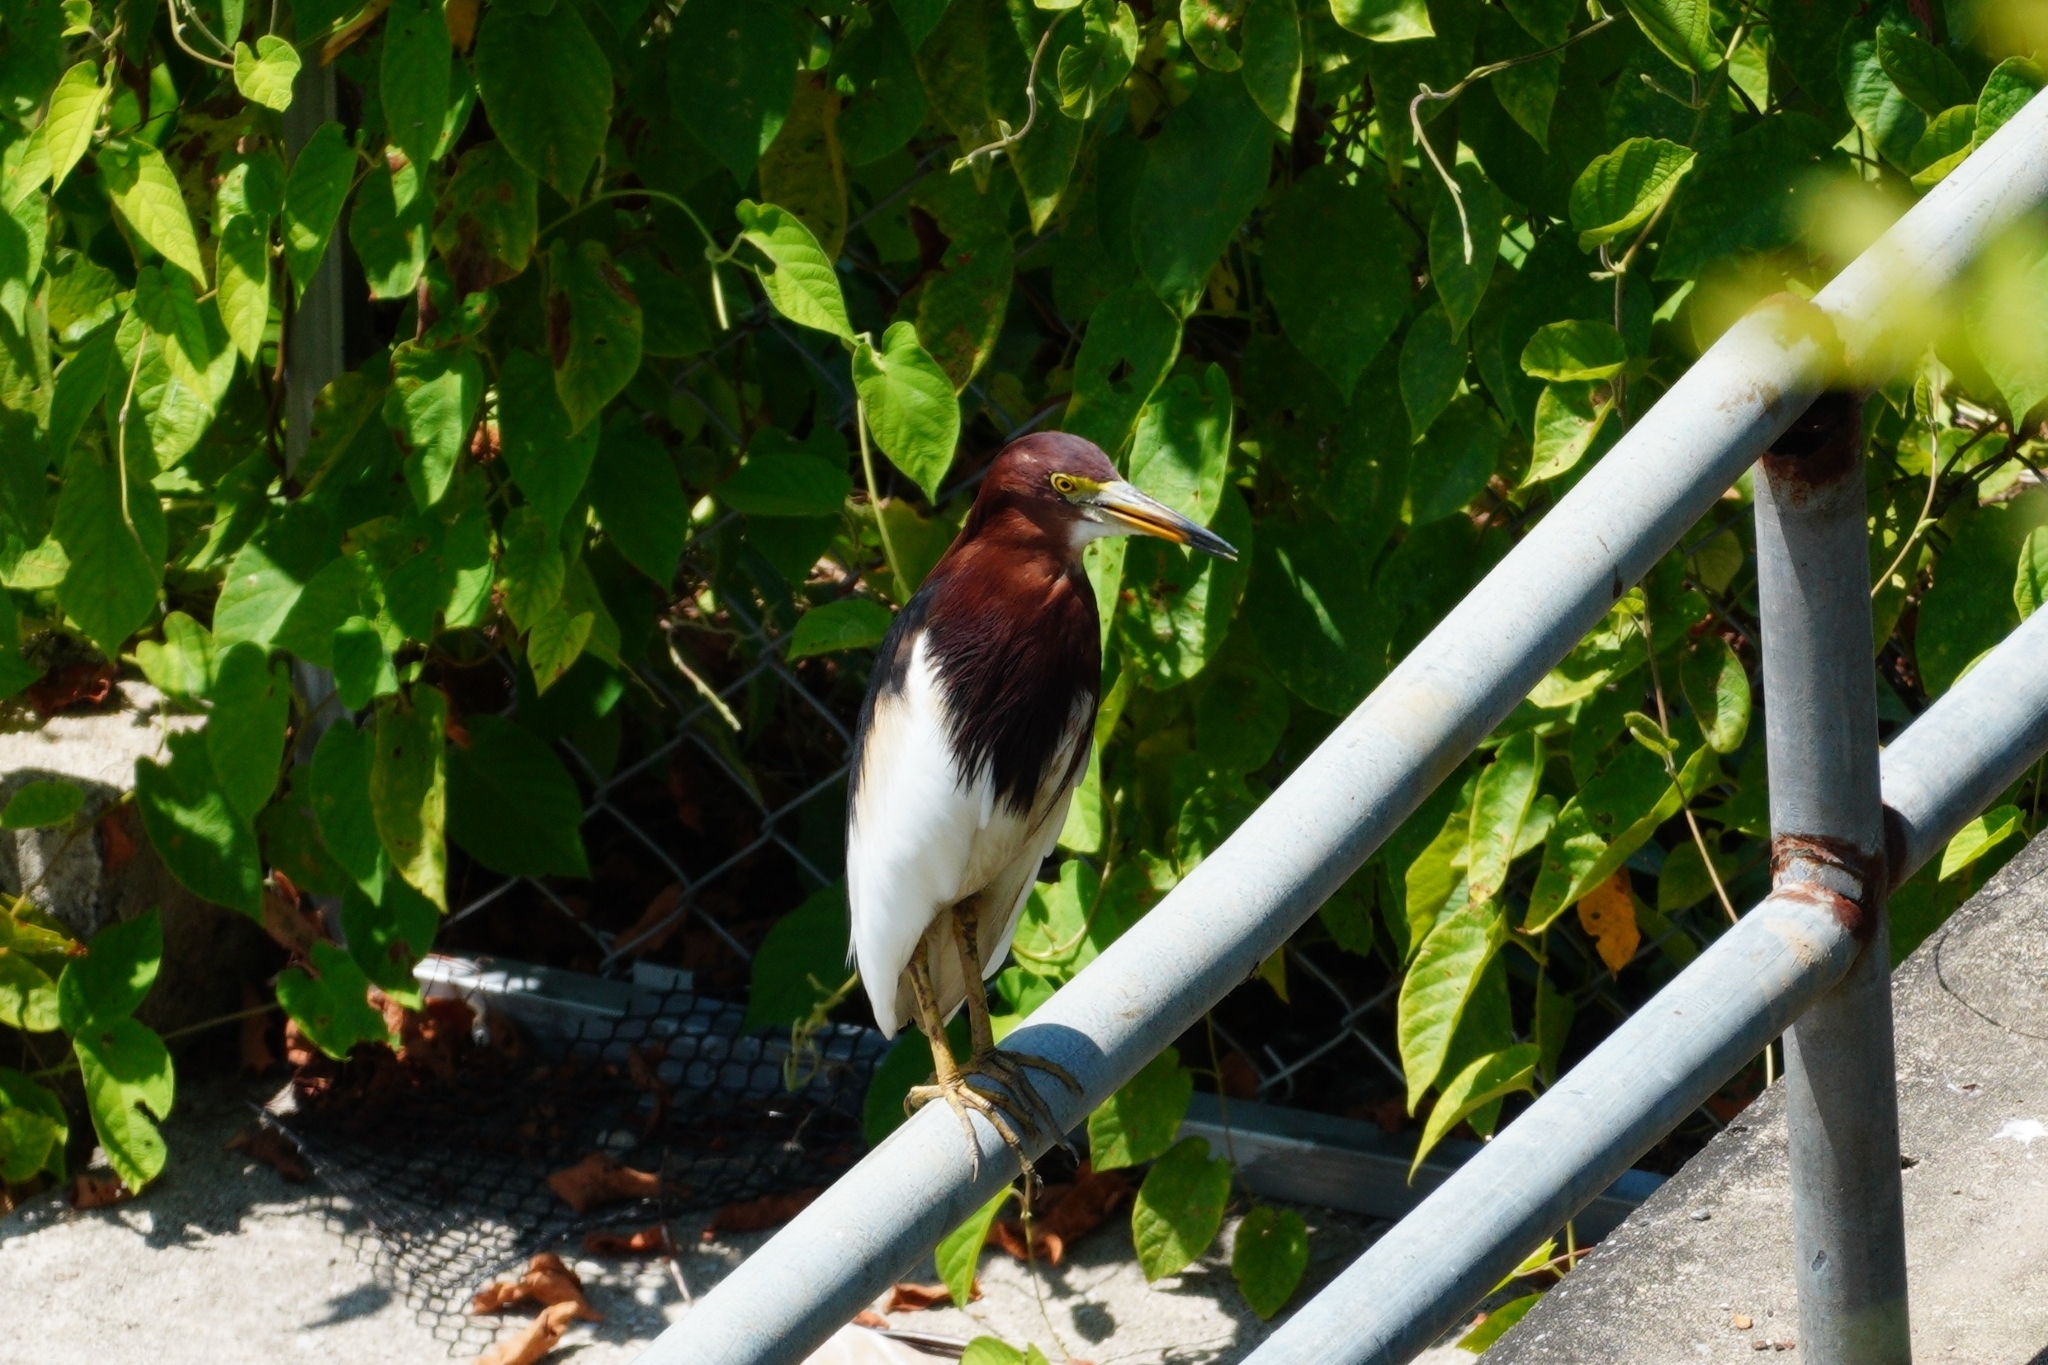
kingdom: Animalia
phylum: Chordata
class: Aves
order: Pelecaniformes
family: Ardeidae
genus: Ardeola
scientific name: Ardeola bacchus
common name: Chinese pond heron
